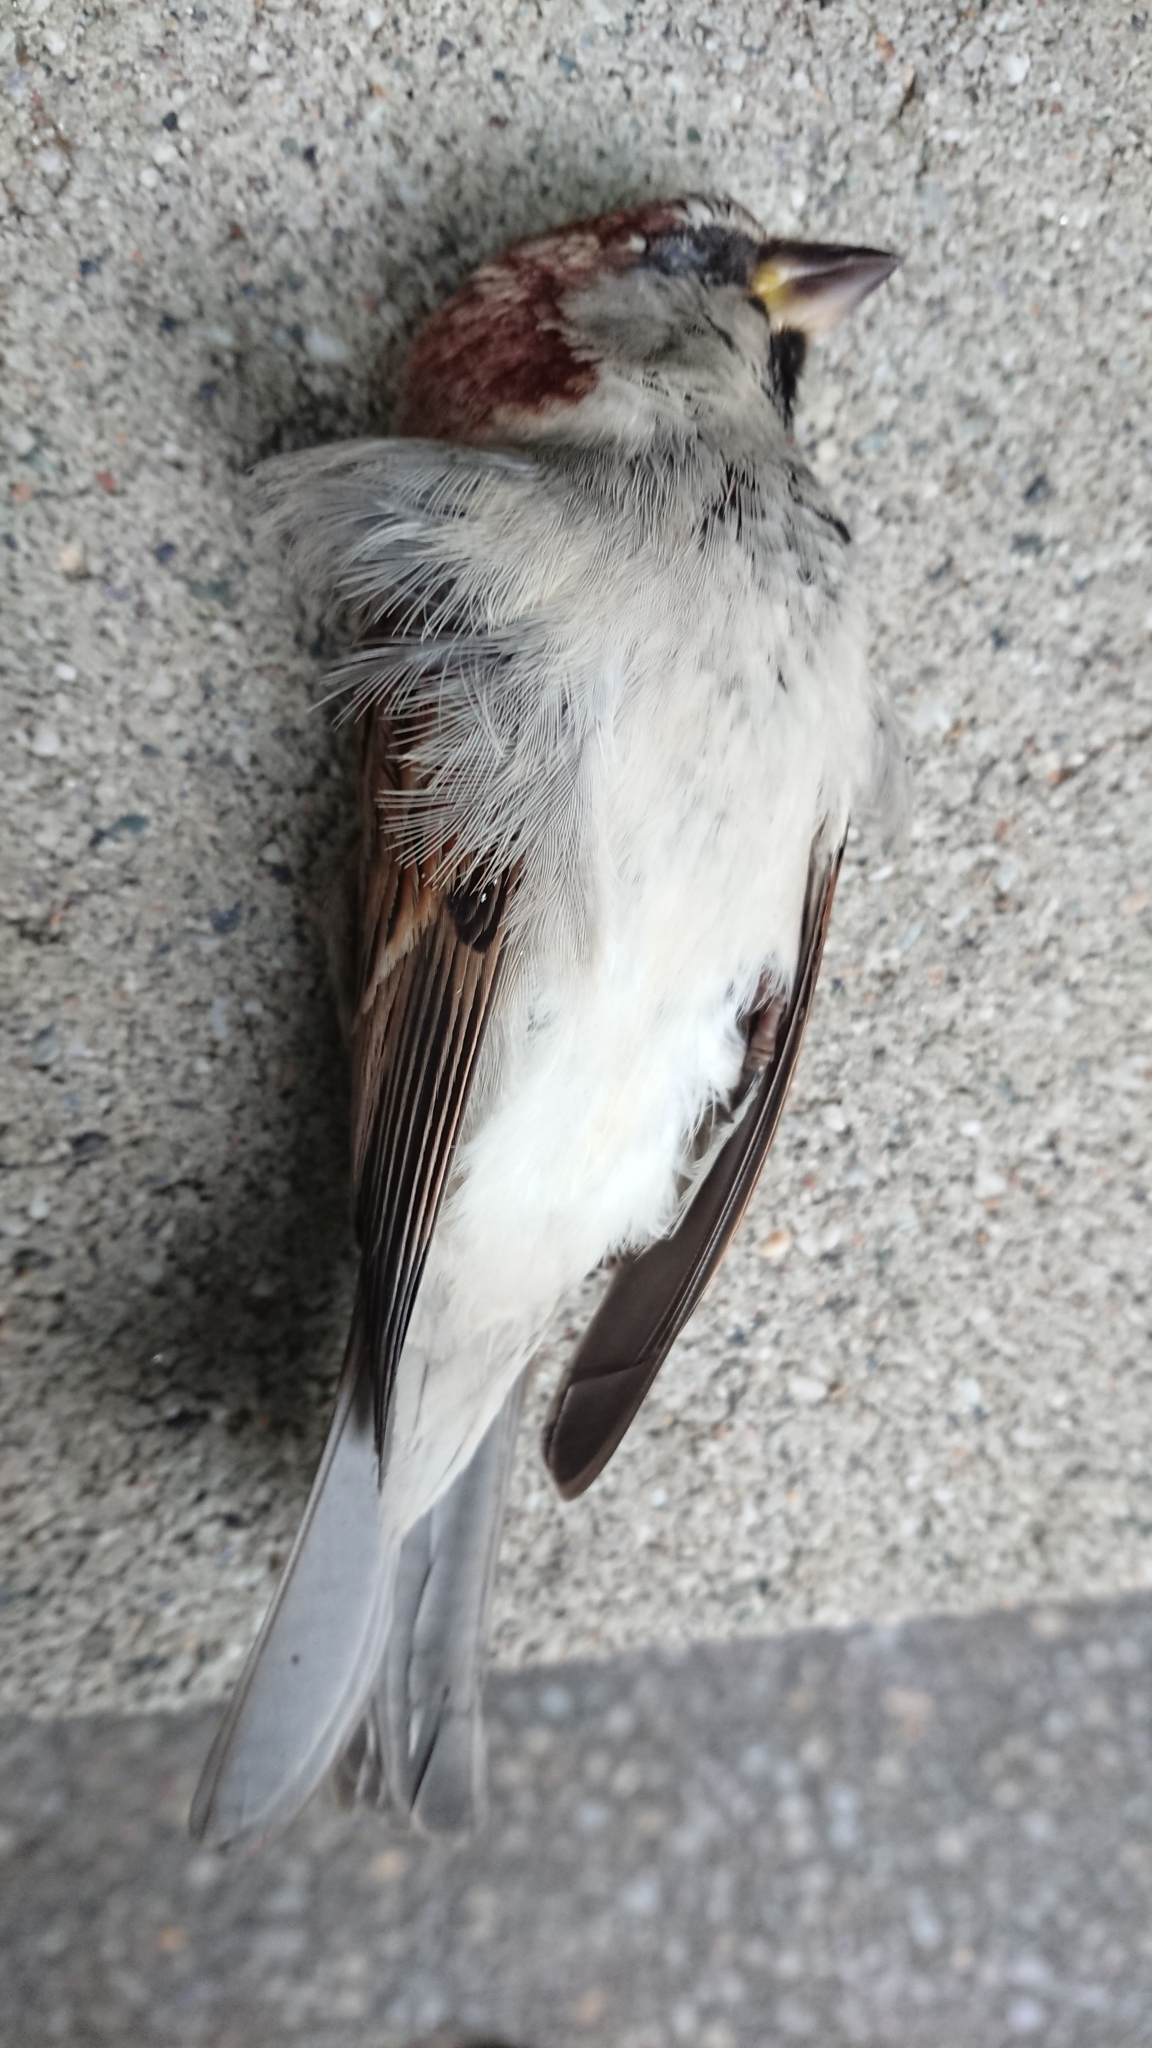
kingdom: Animalia
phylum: Chordata
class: Aves
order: Passeriformes
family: Passeridae
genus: Passer
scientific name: Passer domesticus
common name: House sparrow
